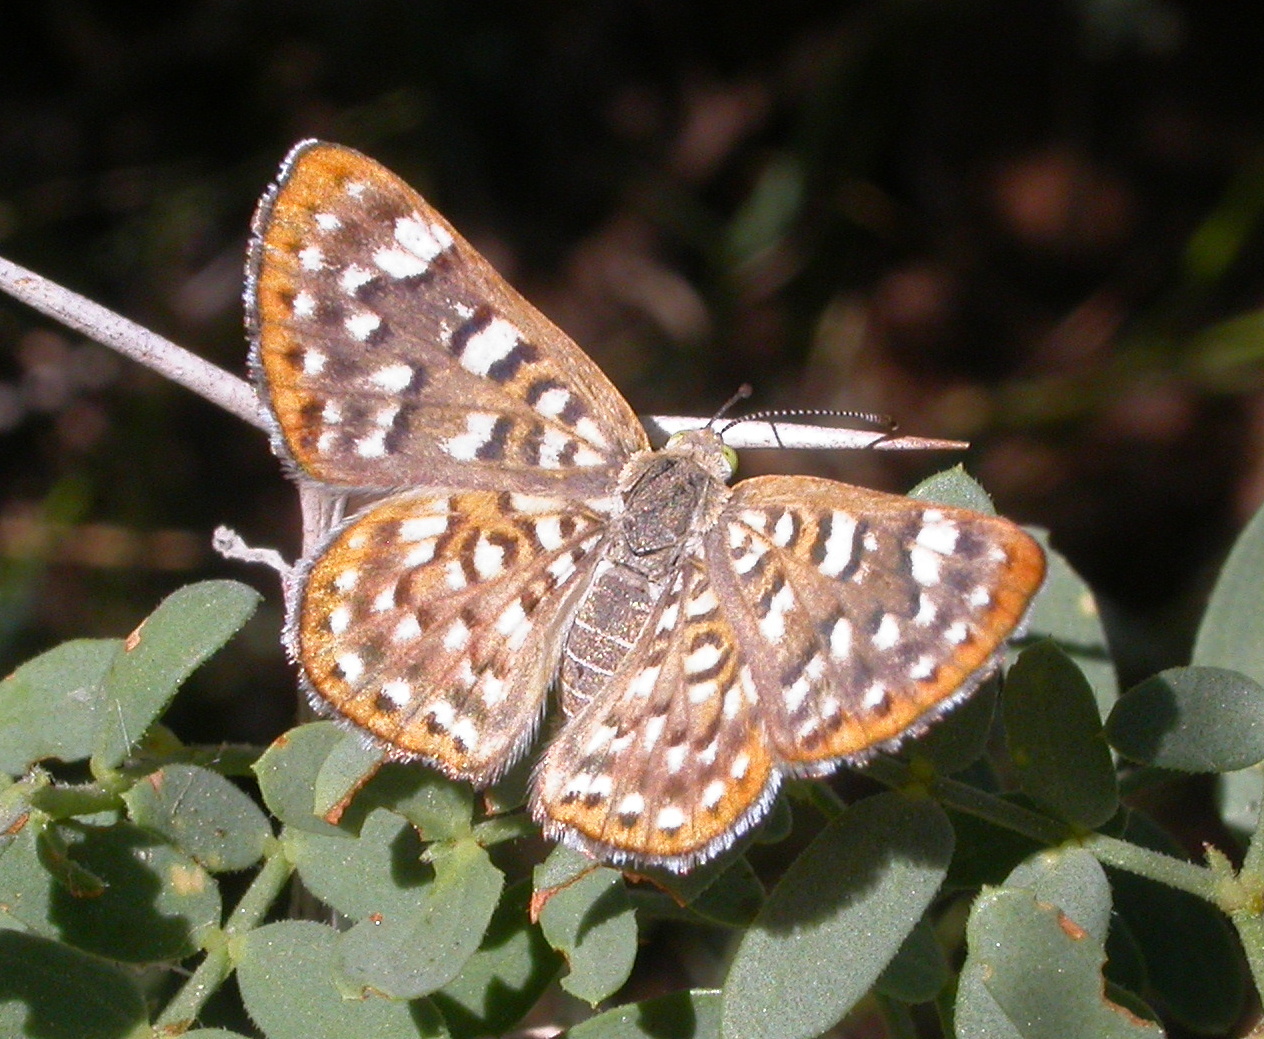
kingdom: Animalia
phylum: Arthropoda
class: Insecta
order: Lepidoptera
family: Riodinidae
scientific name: Riodinidae
